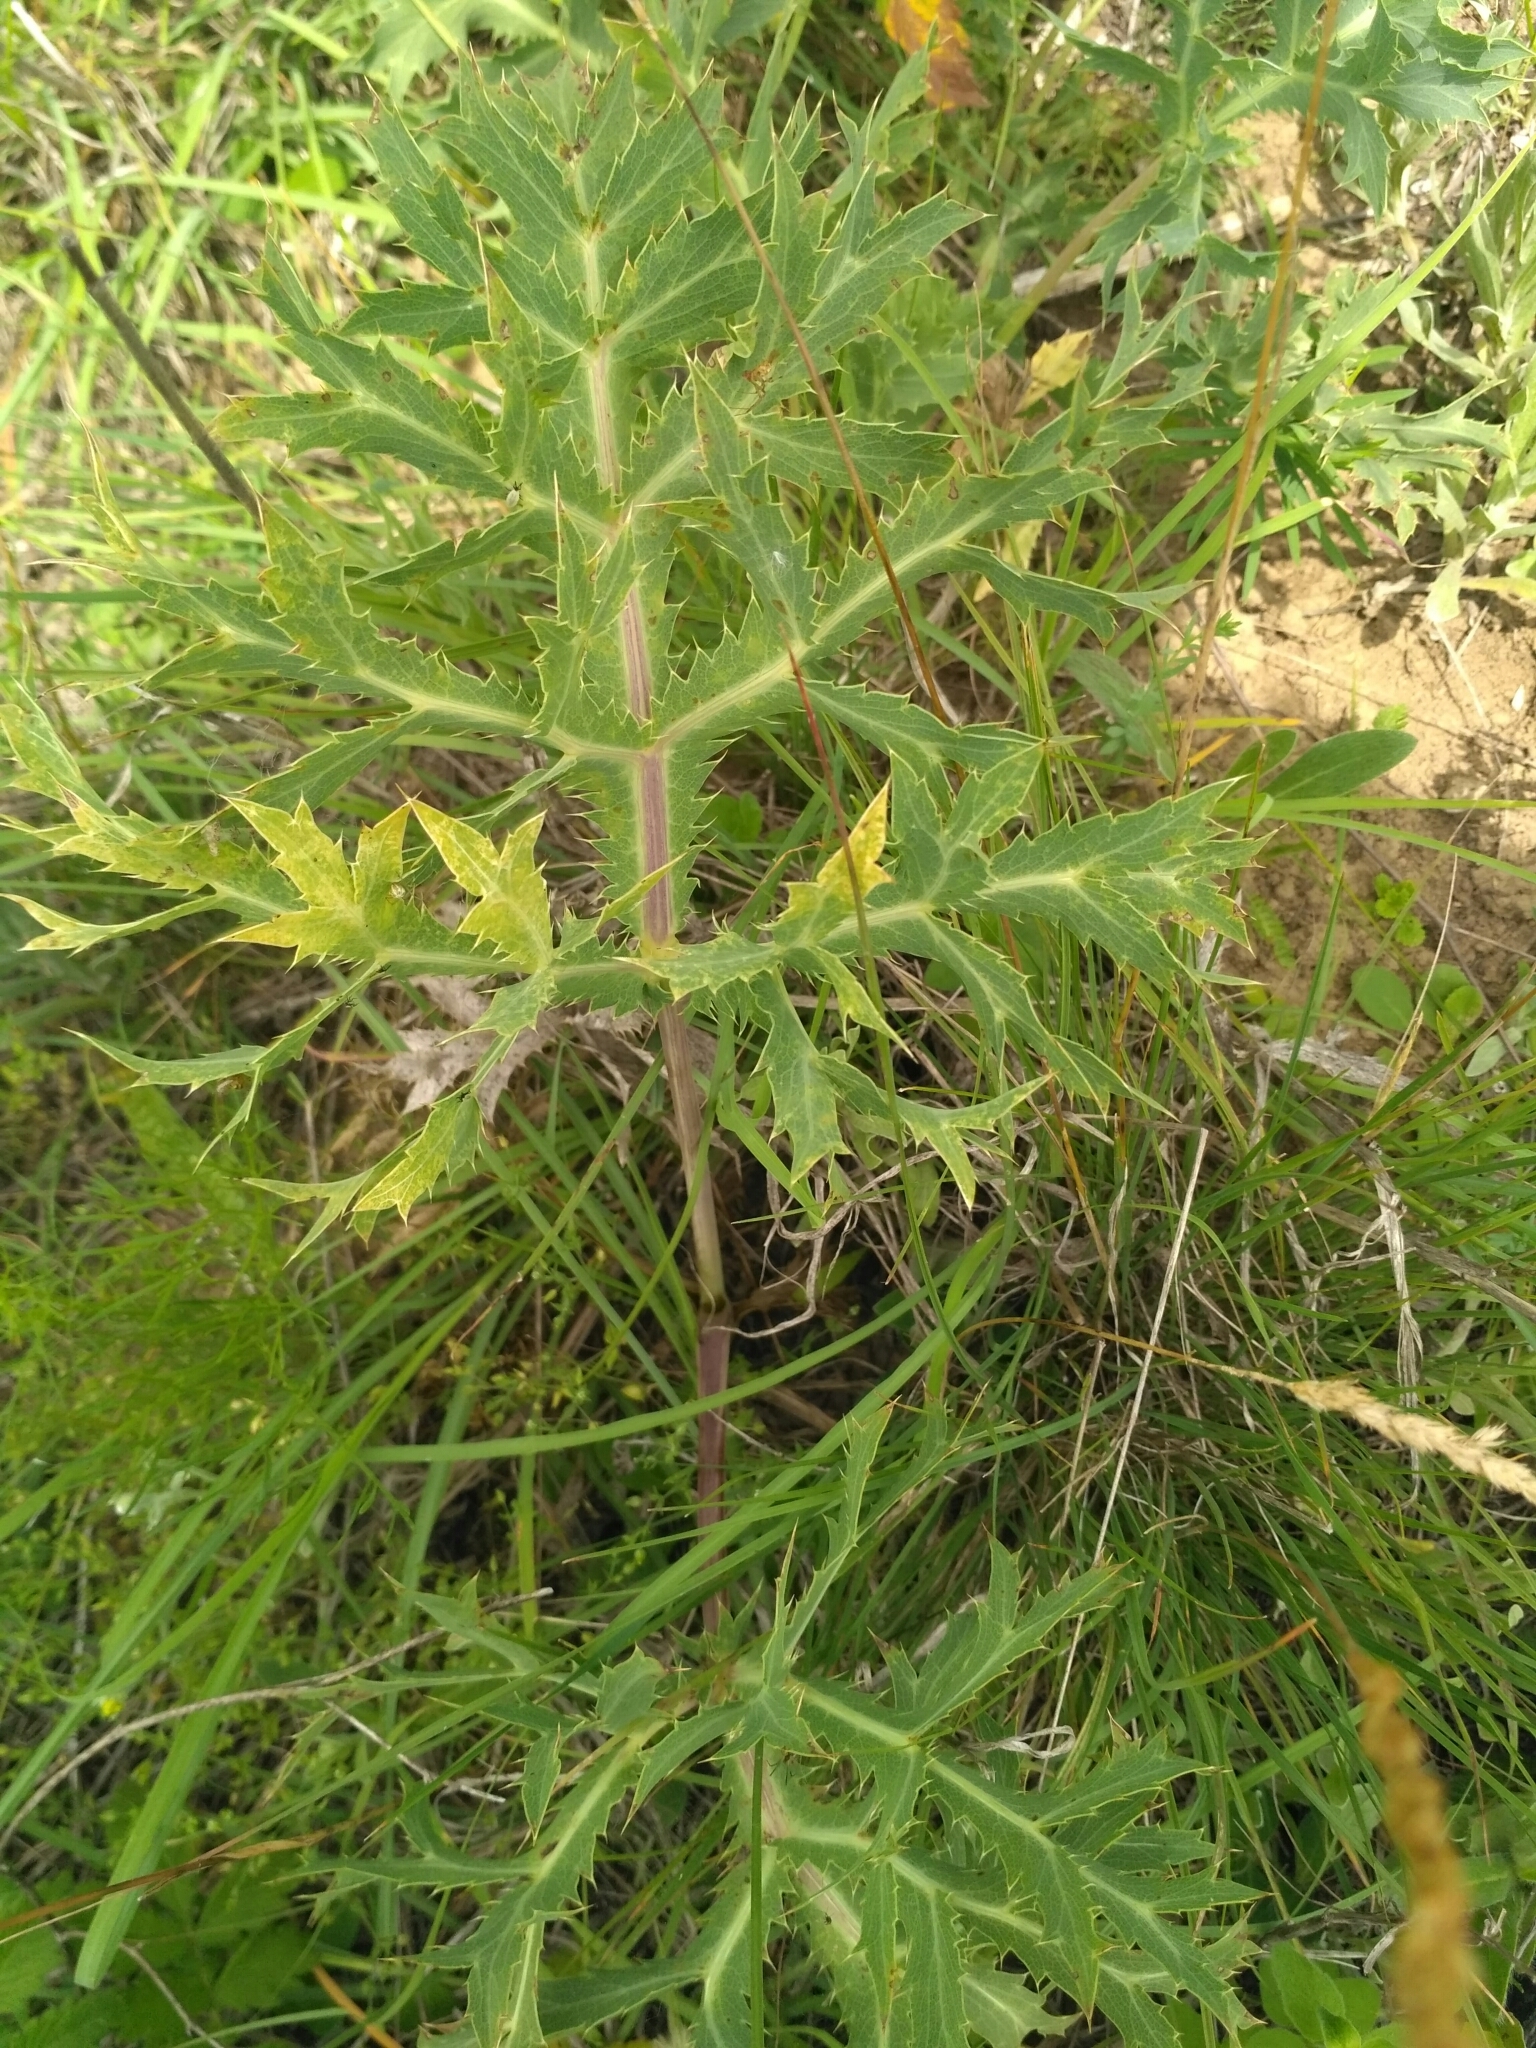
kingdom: Plantae
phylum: Tracheophyta
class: Magnoliopsida
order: Apiales
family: Apiaceae
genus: Eryngium
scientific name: Eryngium campestre
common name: Field eryngo
